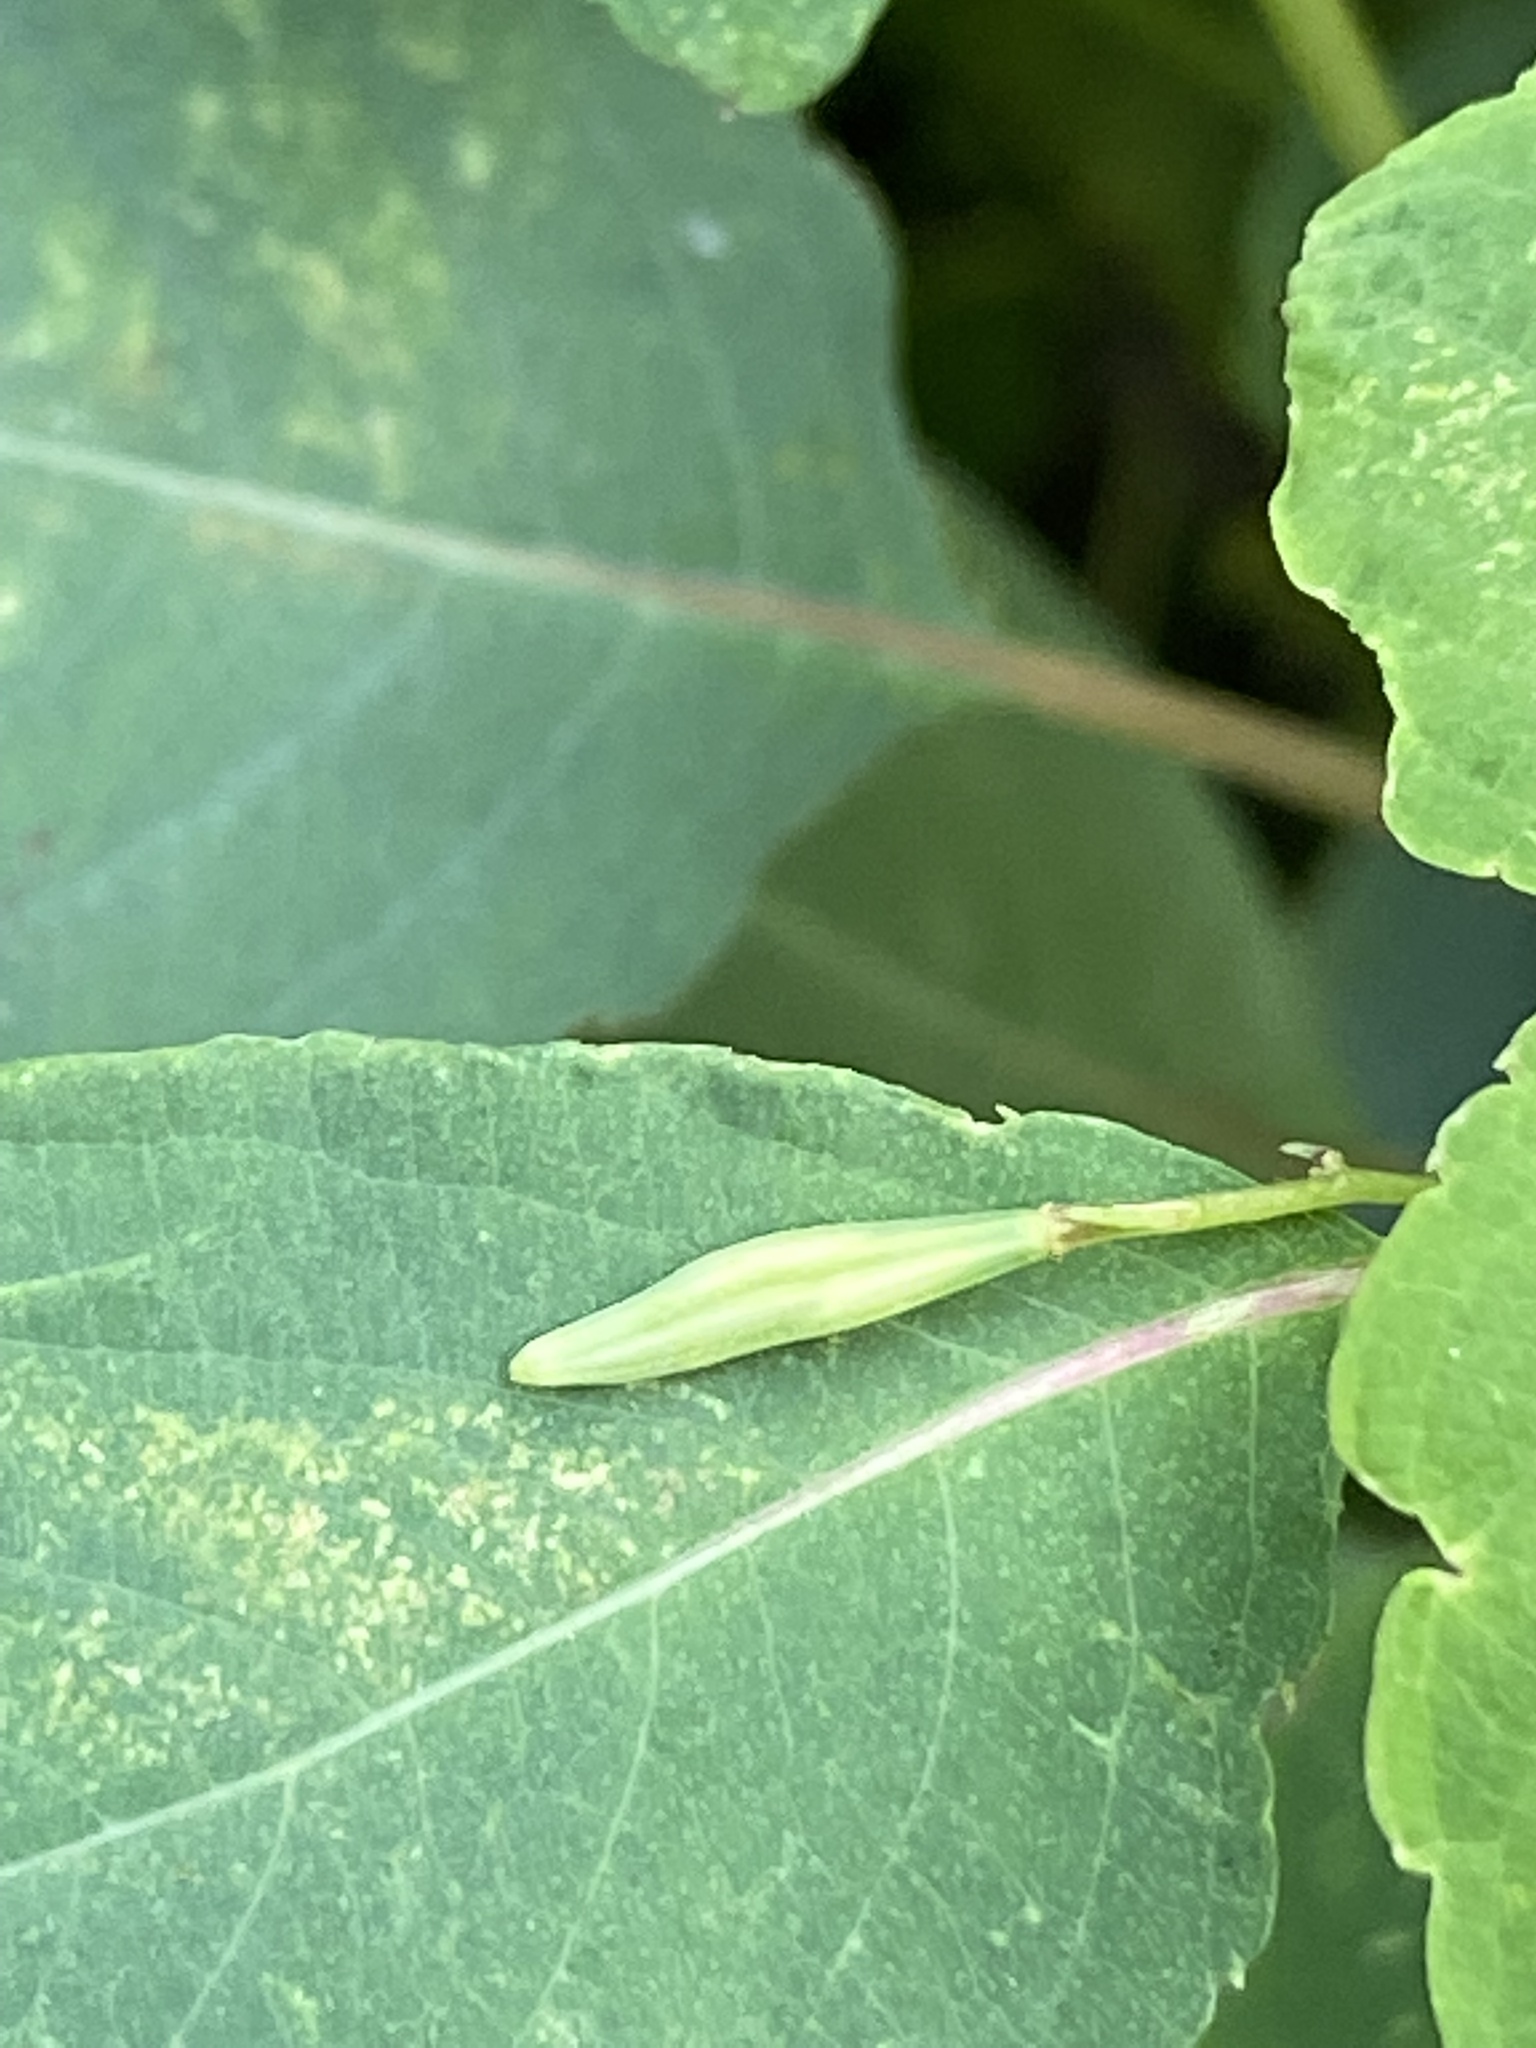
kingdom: Plantae
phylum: Tracheophyta
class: Magnoliopsida
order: Ericales
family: Balsaminaceae
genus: Impatiens
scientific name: Impatiens capensis
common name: Orange balsam
